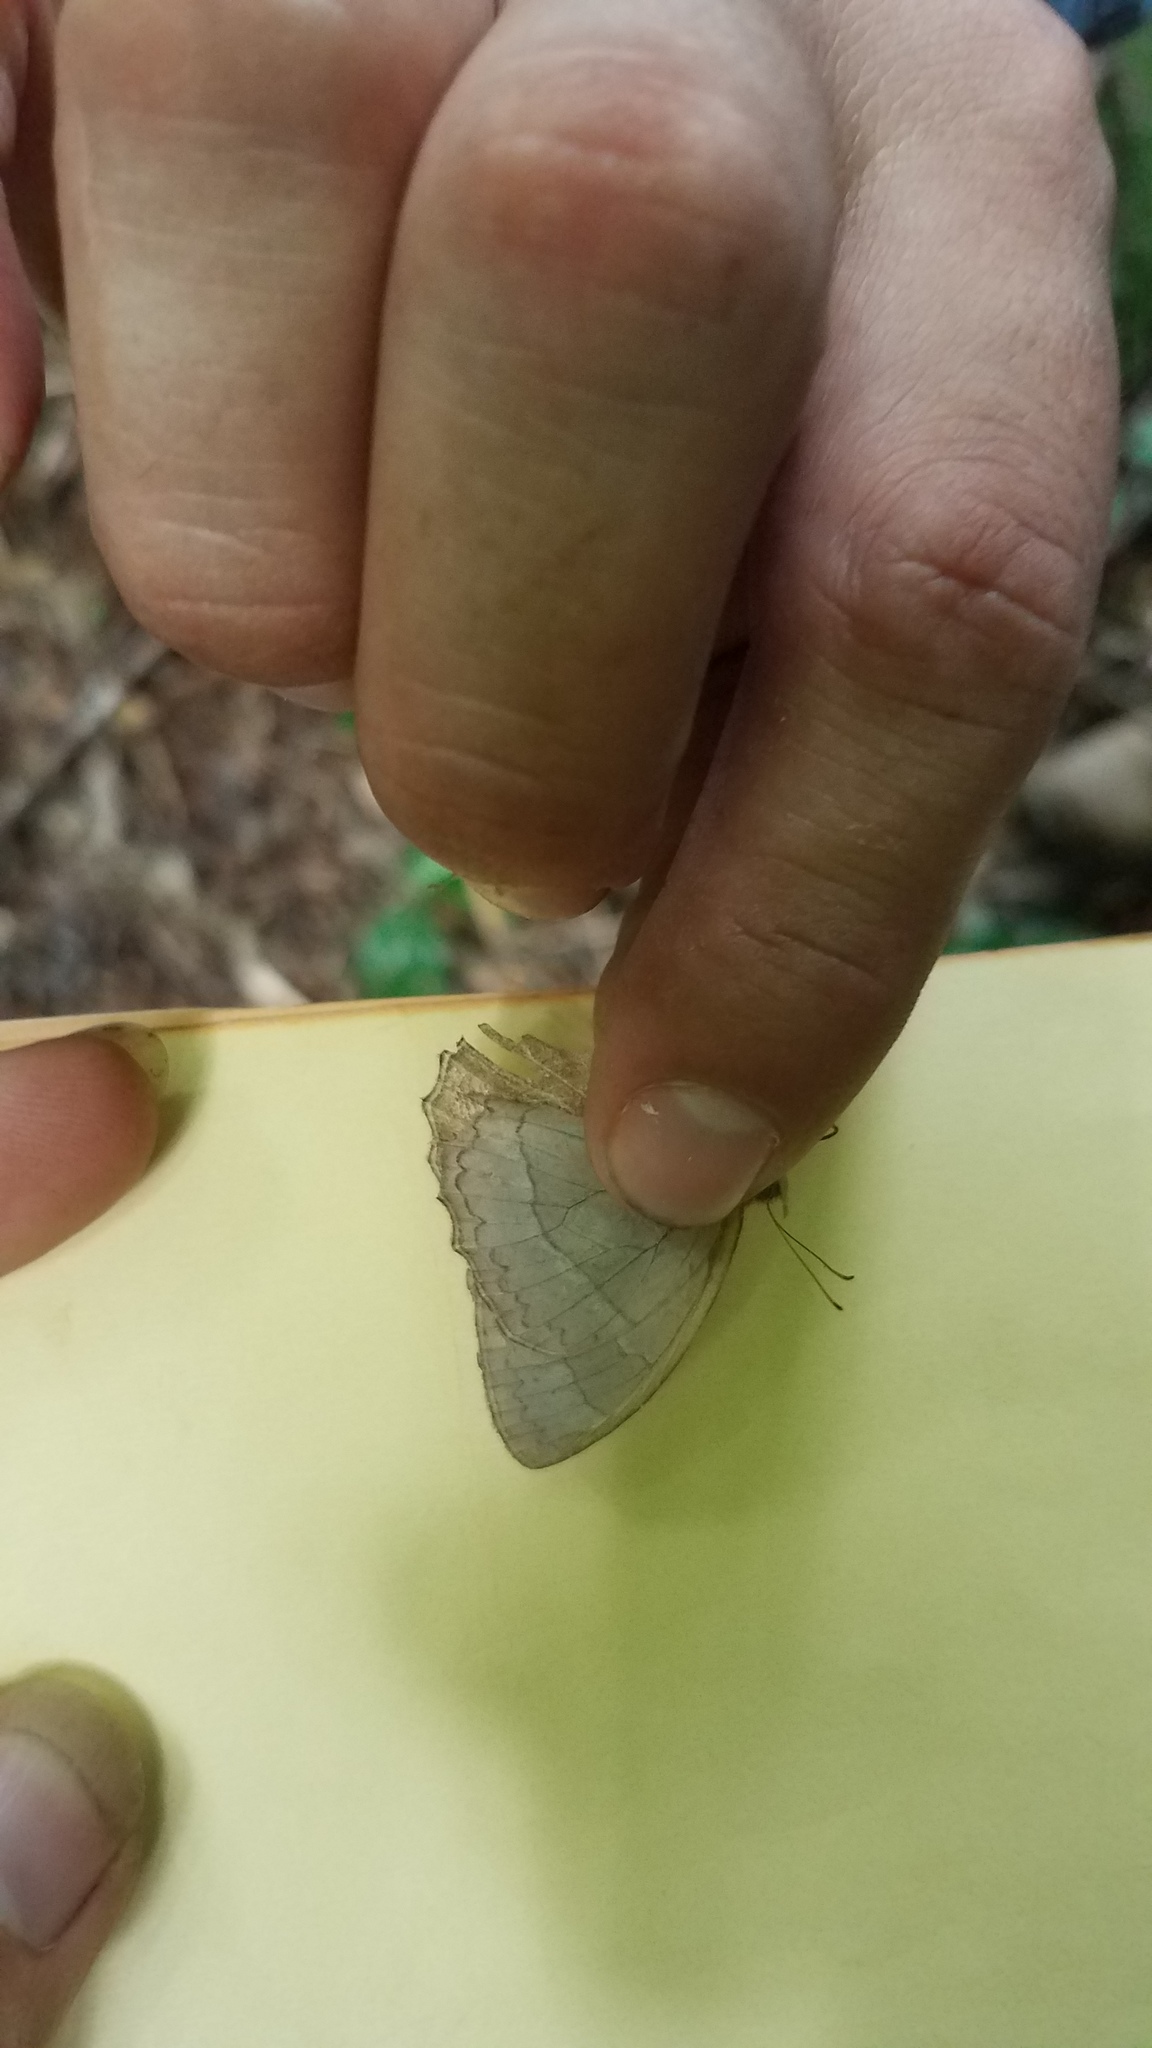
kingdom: Animalia
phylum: Arthropoda
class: Insecta
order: Lepidoptera
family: Nymphalidae
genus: Taygetina
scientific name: Taygetina kerea
